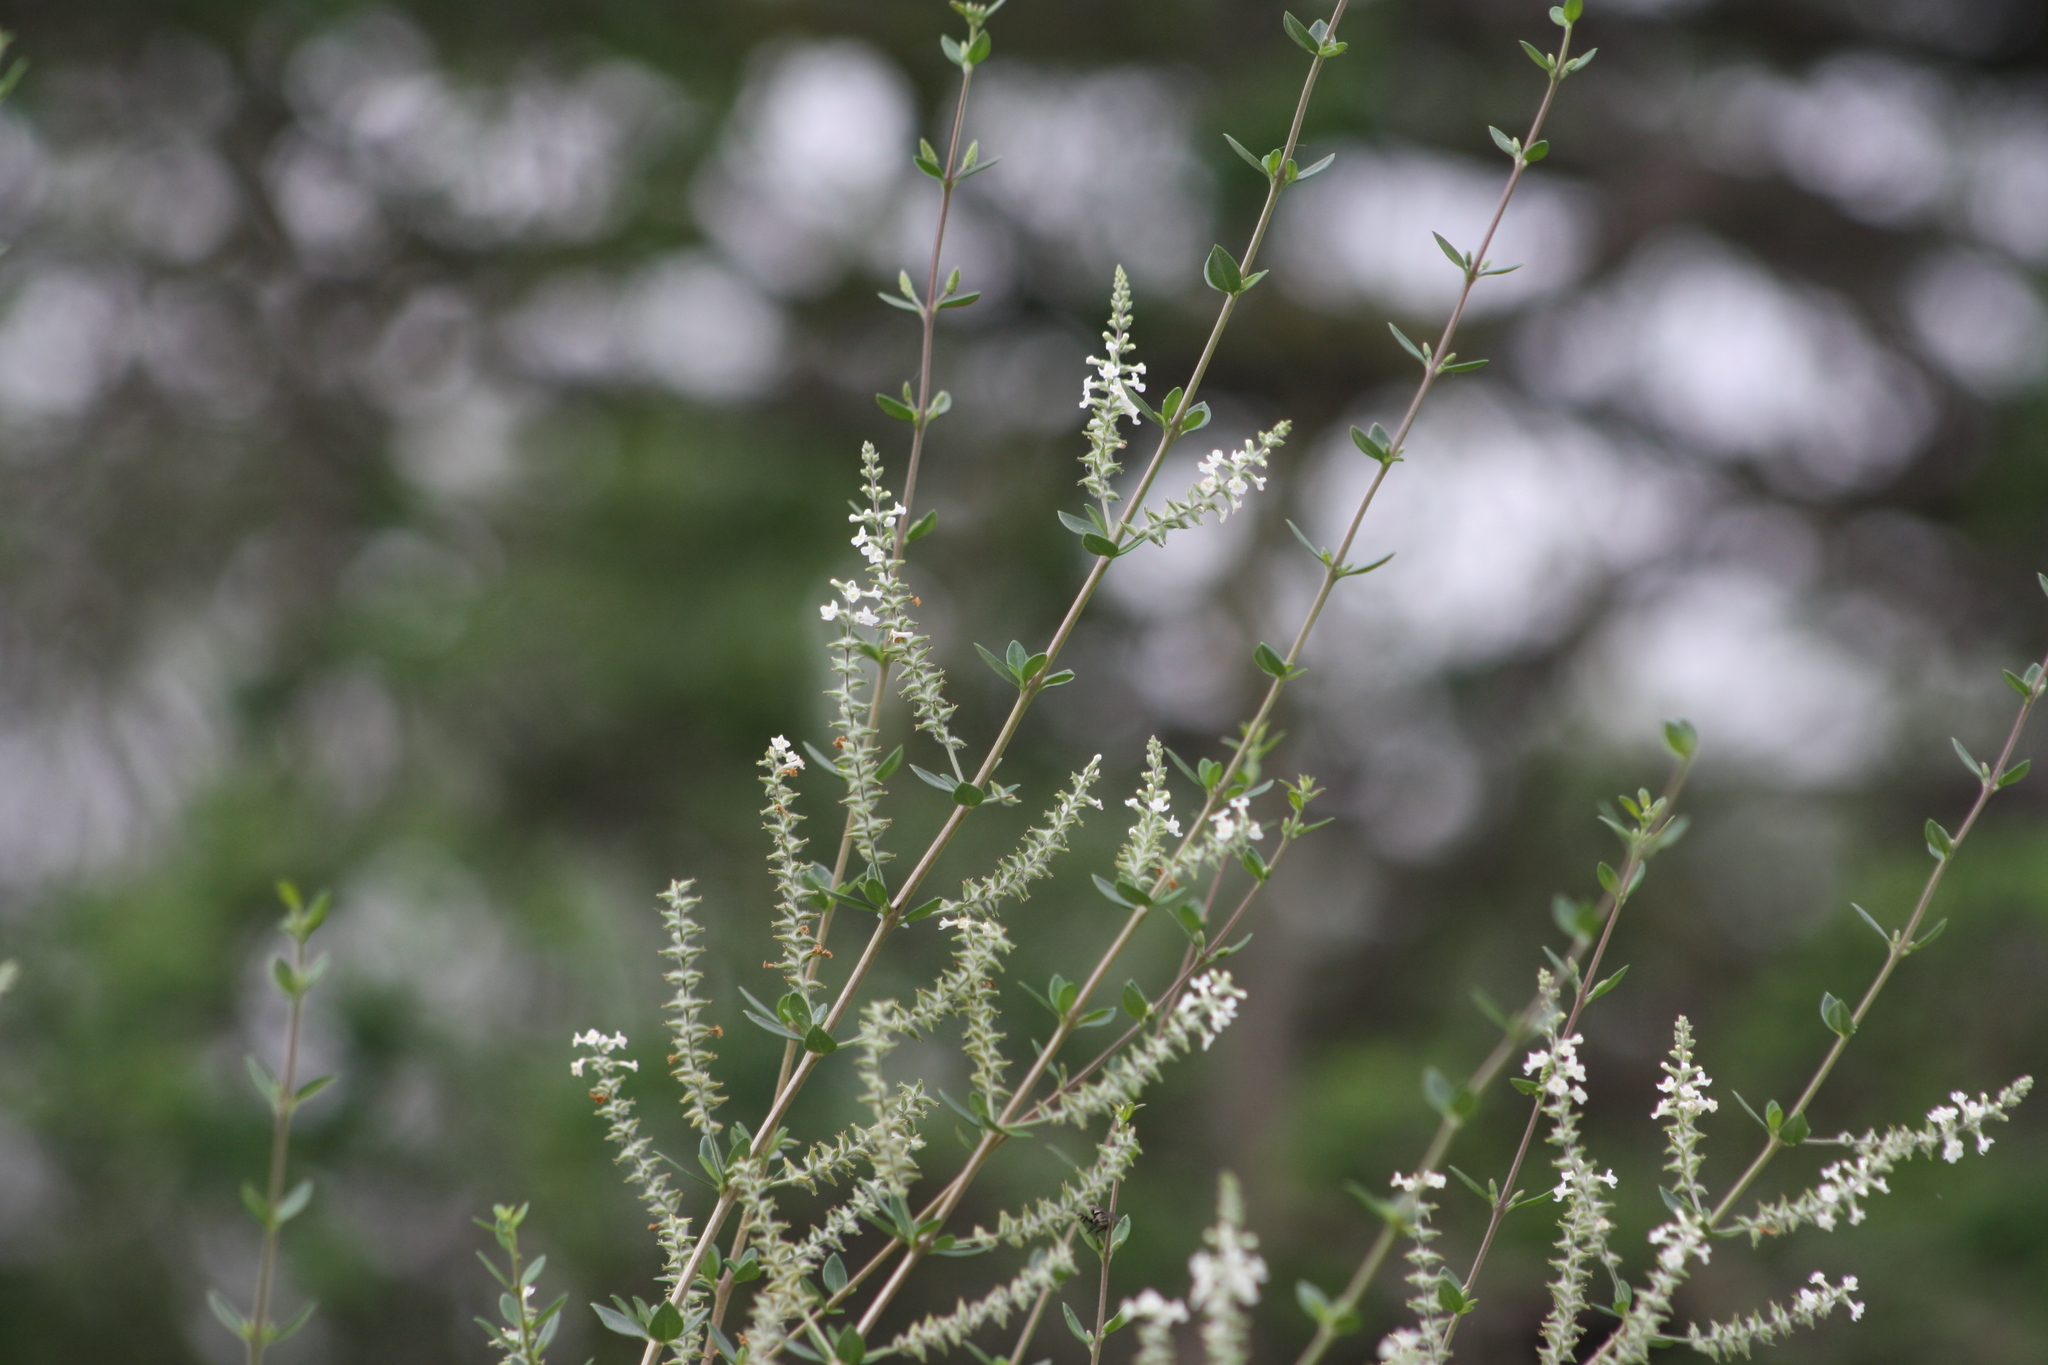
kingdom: Plantae
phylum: Tracheophyta
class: Magnoliopsida
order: Lamiales
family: Verbenaceae
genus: Aloysia
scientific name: Aloysia gratissima
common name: Common bee-brush
